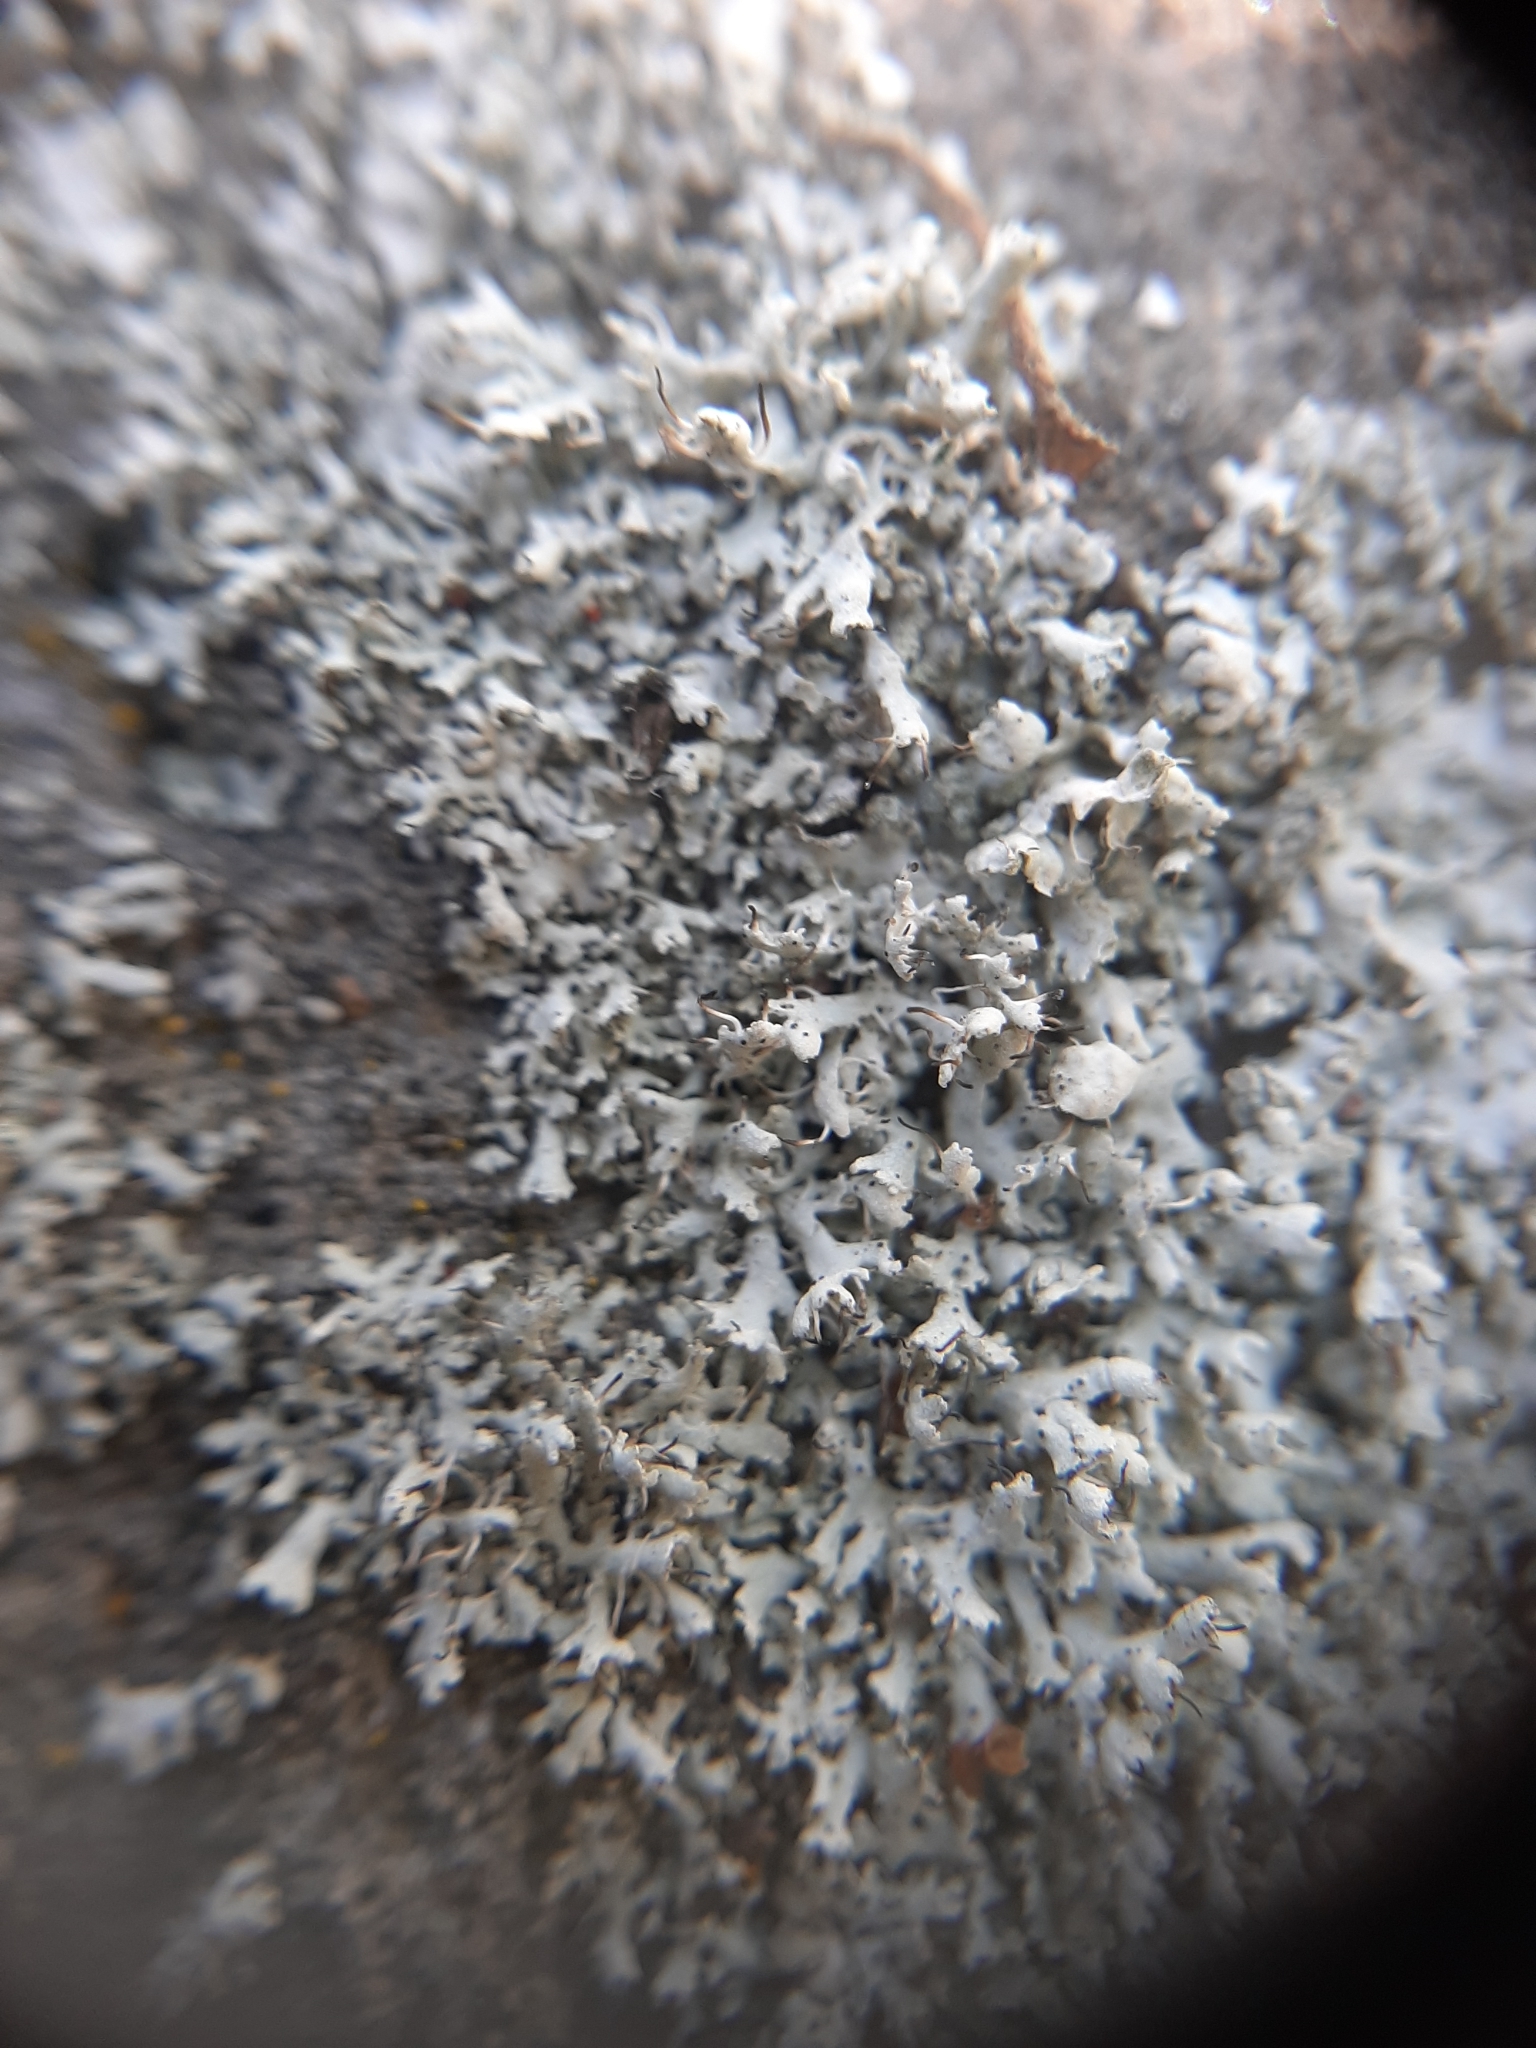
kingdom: Fungi
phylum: Ascomycota
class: Lecanoromycetes
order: Caliciales
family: Physciaceae
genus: Physcia
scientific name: Physcia adscendens
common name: Hooded rosette lichen
